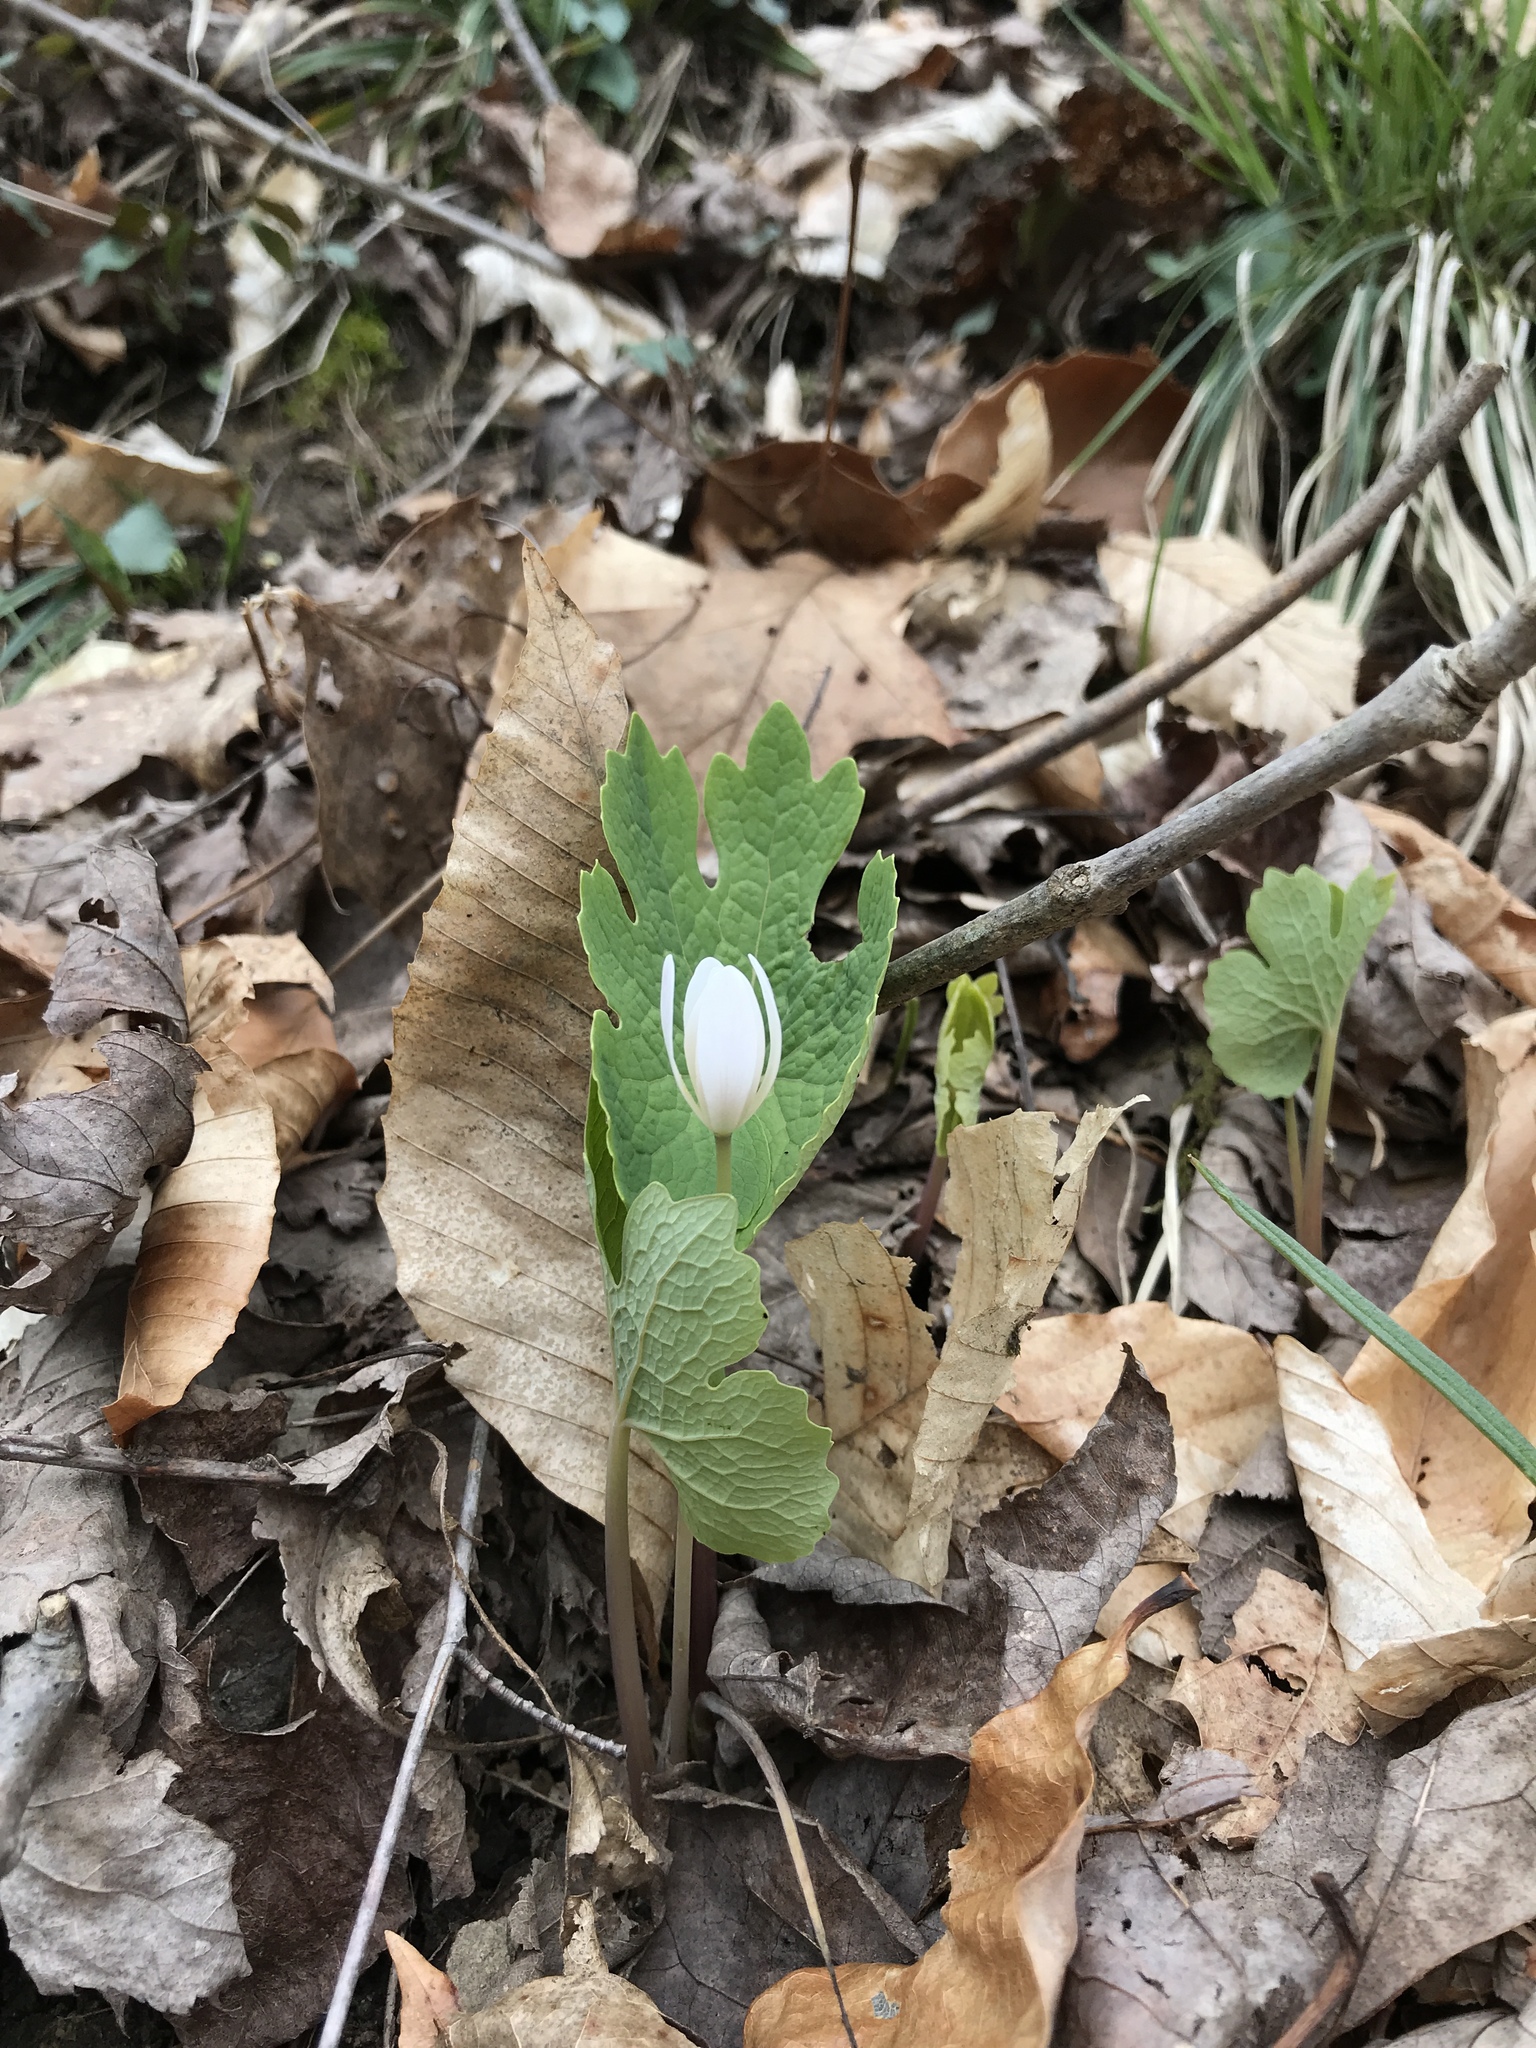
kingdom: Plantae
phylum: Tracheophyta
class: Magnoliopsida
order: Ranunculales
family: Papaveraceae
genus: Sanguinaria
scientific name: Sanguinaria canadensis
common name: Bloodroot
